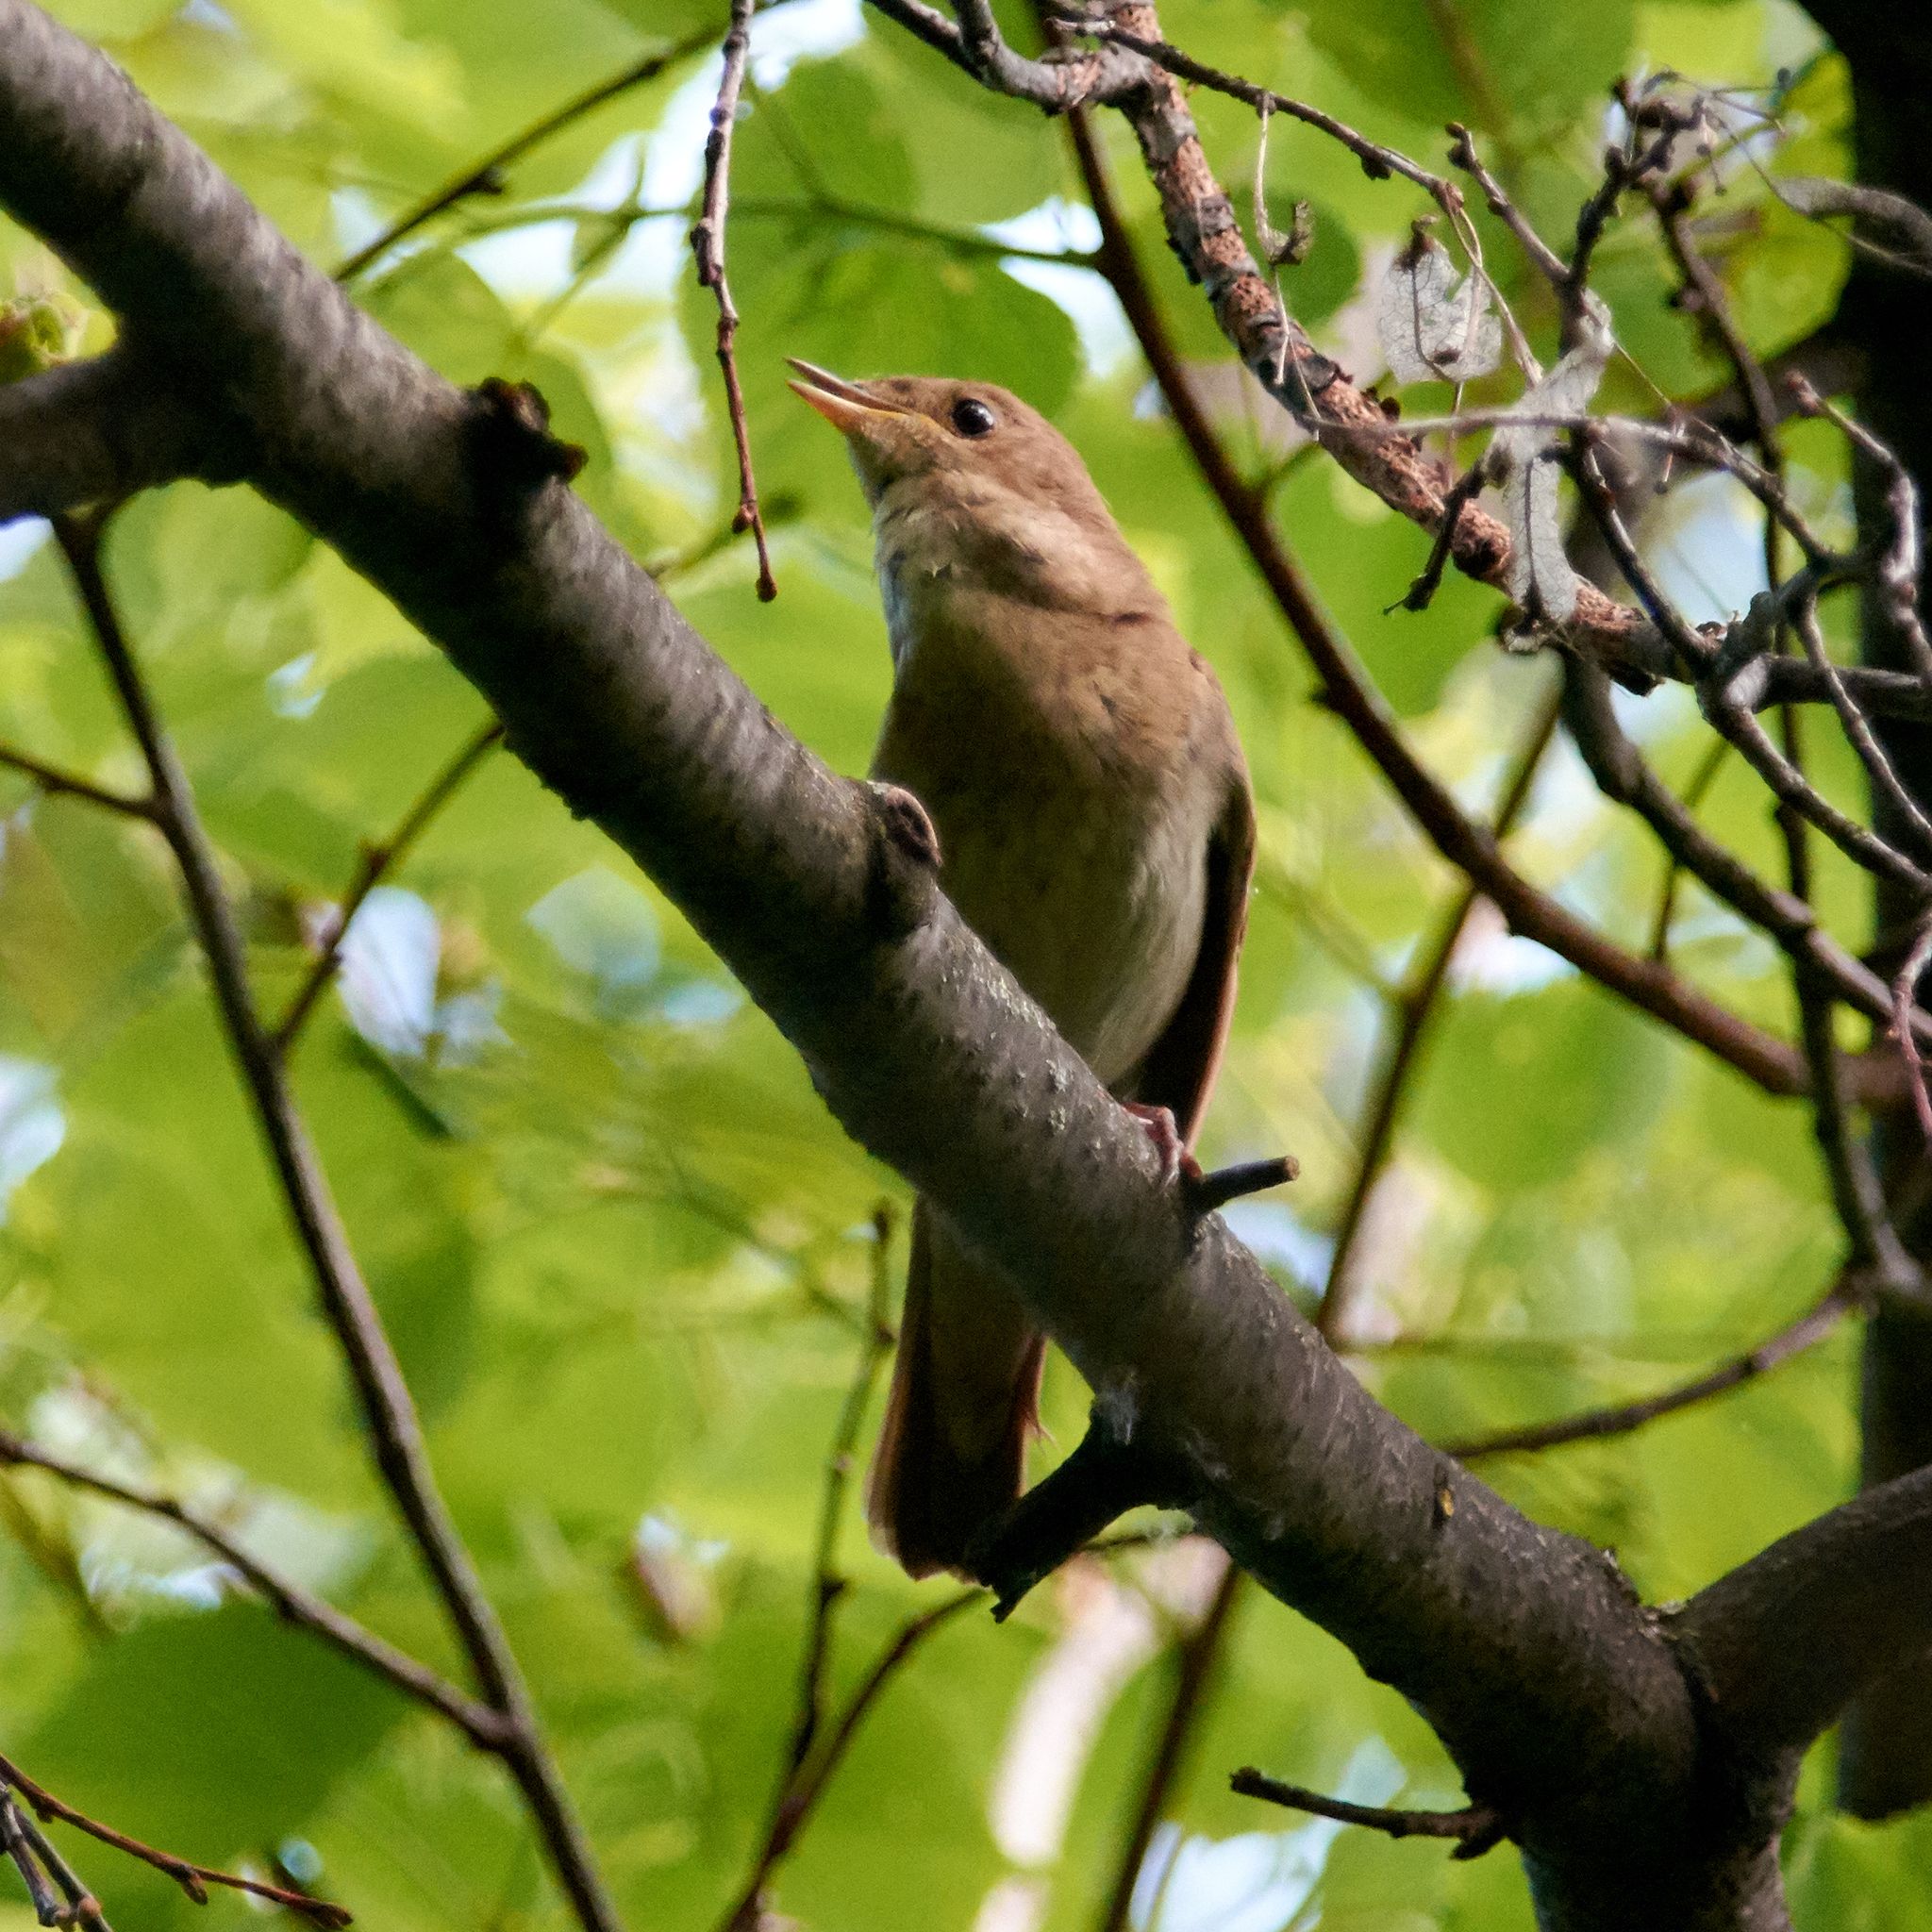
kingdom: Animalia
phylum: Chordata
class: Aves
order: Passeriformes
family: Muscicapidae
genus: Luscinia
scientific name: Luscinia luscinia
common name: Thrush nightingale
